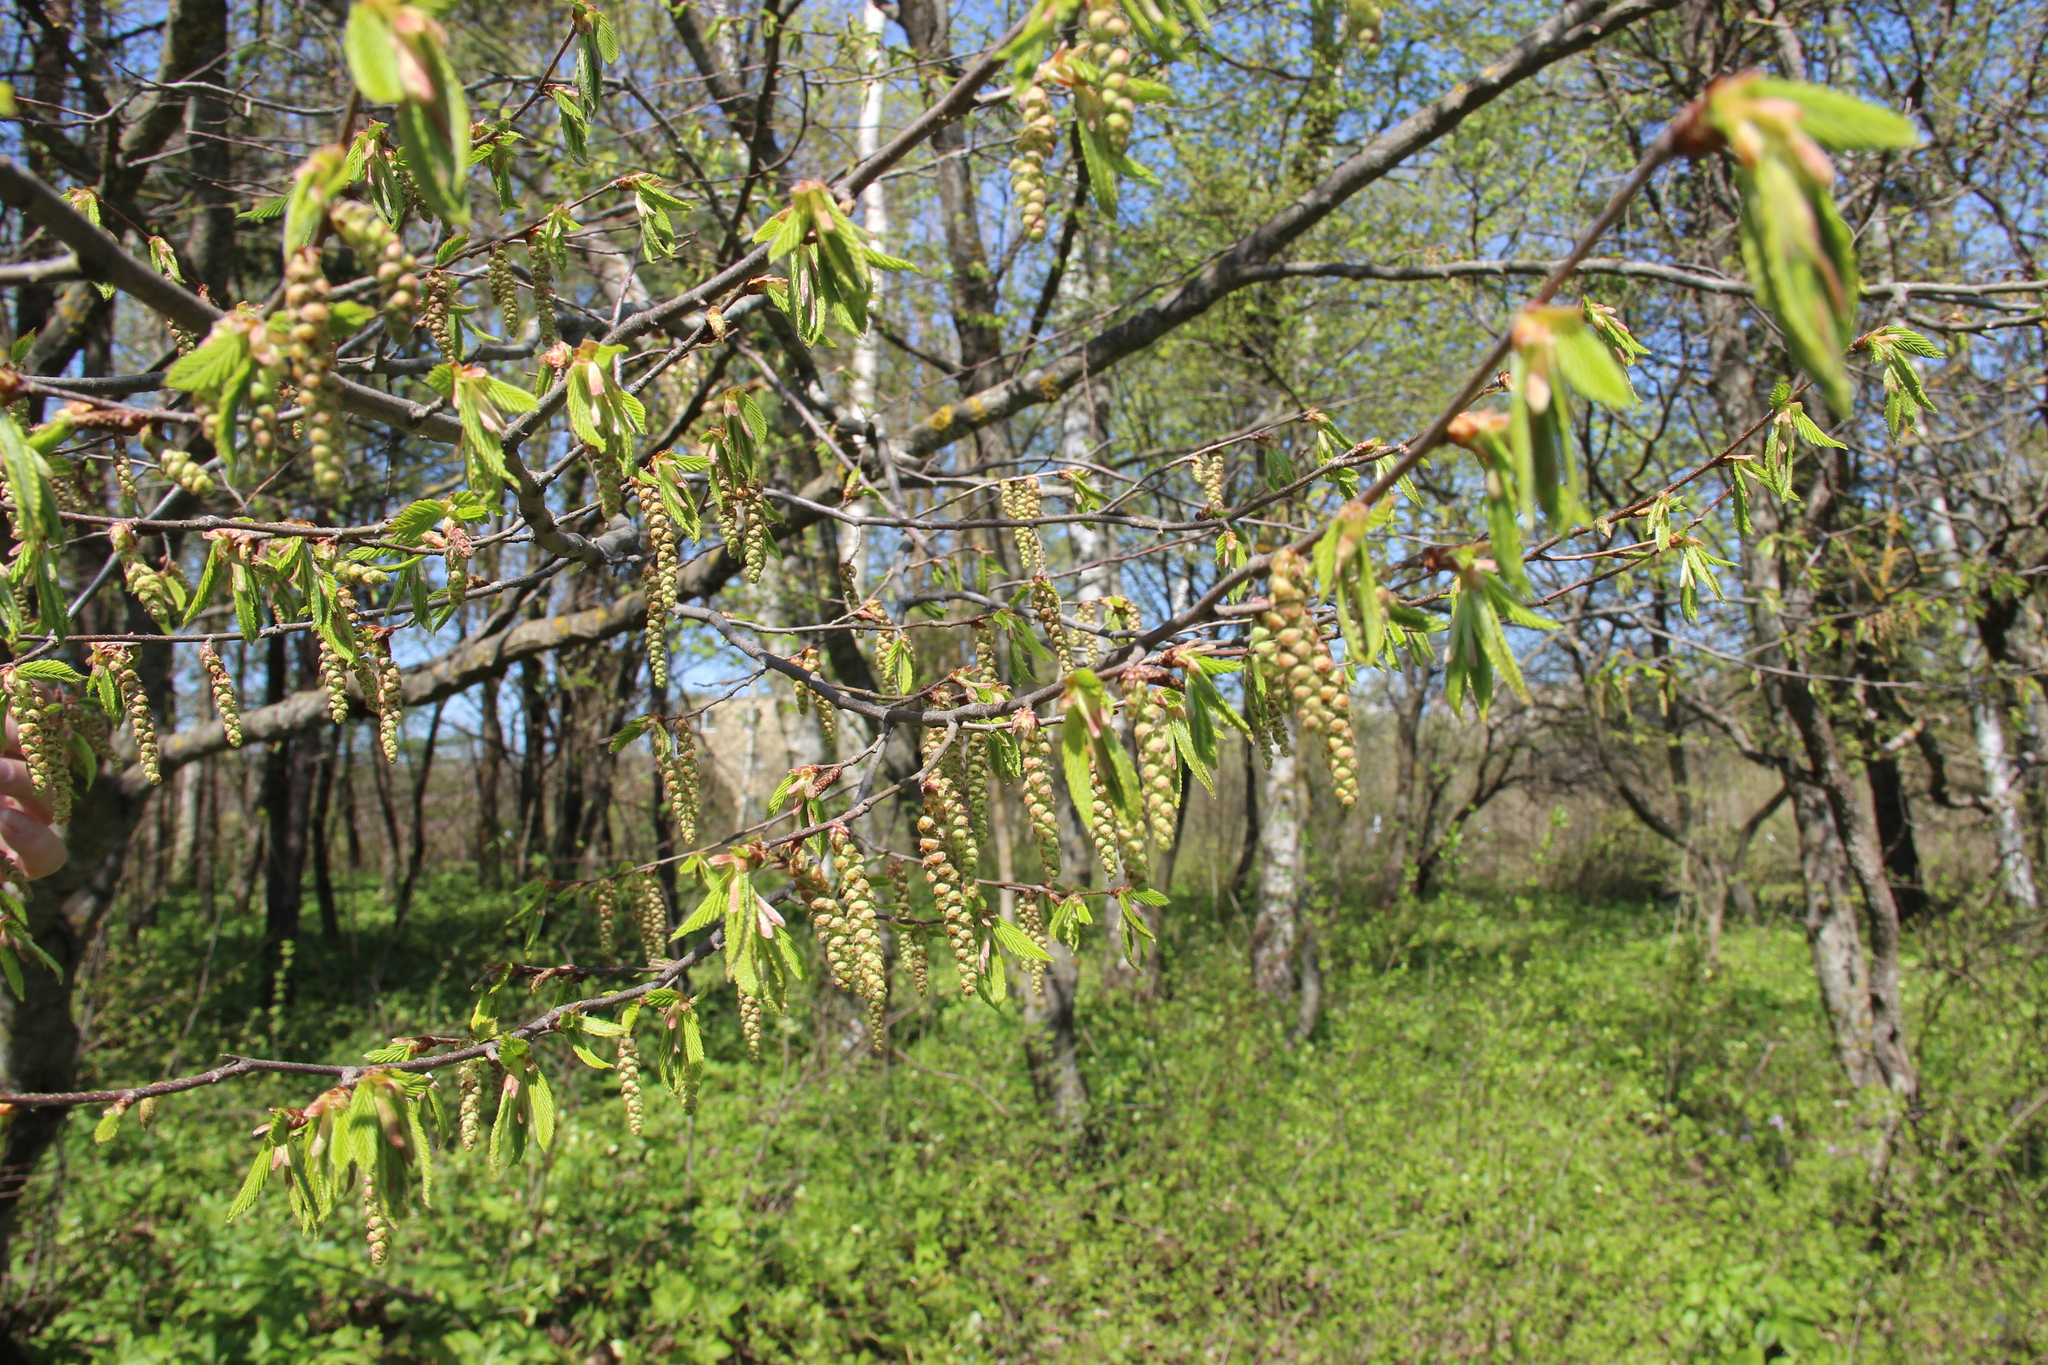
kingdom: Plantae
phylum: Tracheophyta
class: Magnoliopsida
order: Fagales
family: Betulaceae
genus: Carpinus
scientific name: Carpinus betulus
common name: Hornbeam
